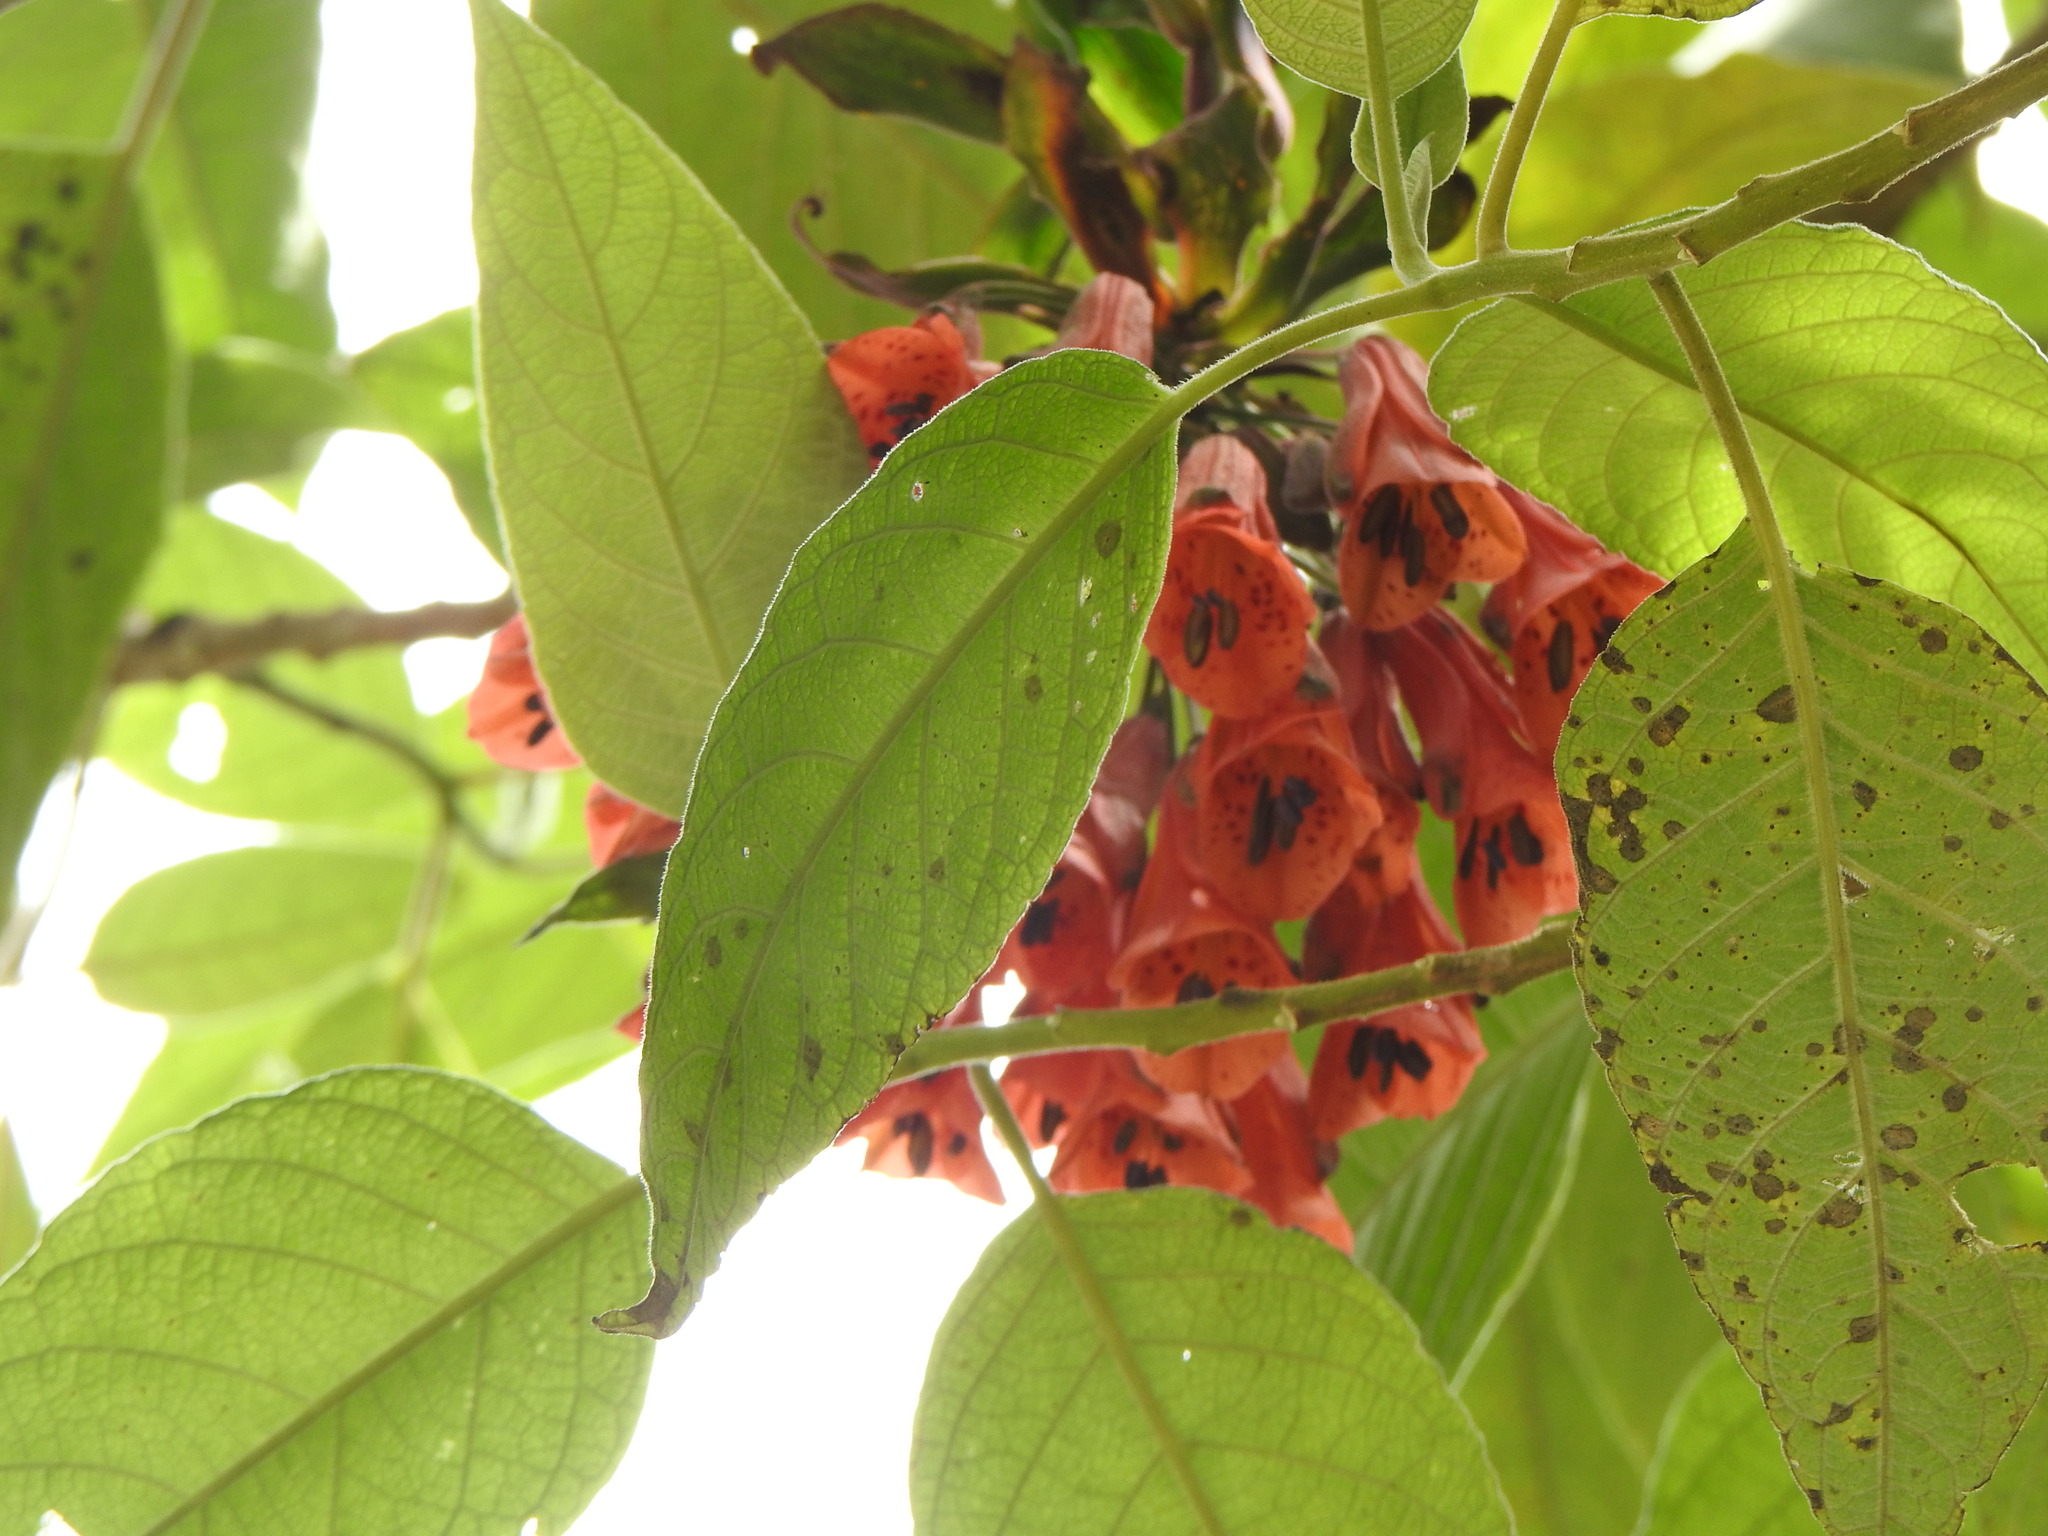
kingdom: Plantae
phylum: Tracheophyta
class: Liliopsida
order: Liliales
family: Alstroemeriaceae
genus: Bomarea
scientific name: Bomarea patinii
